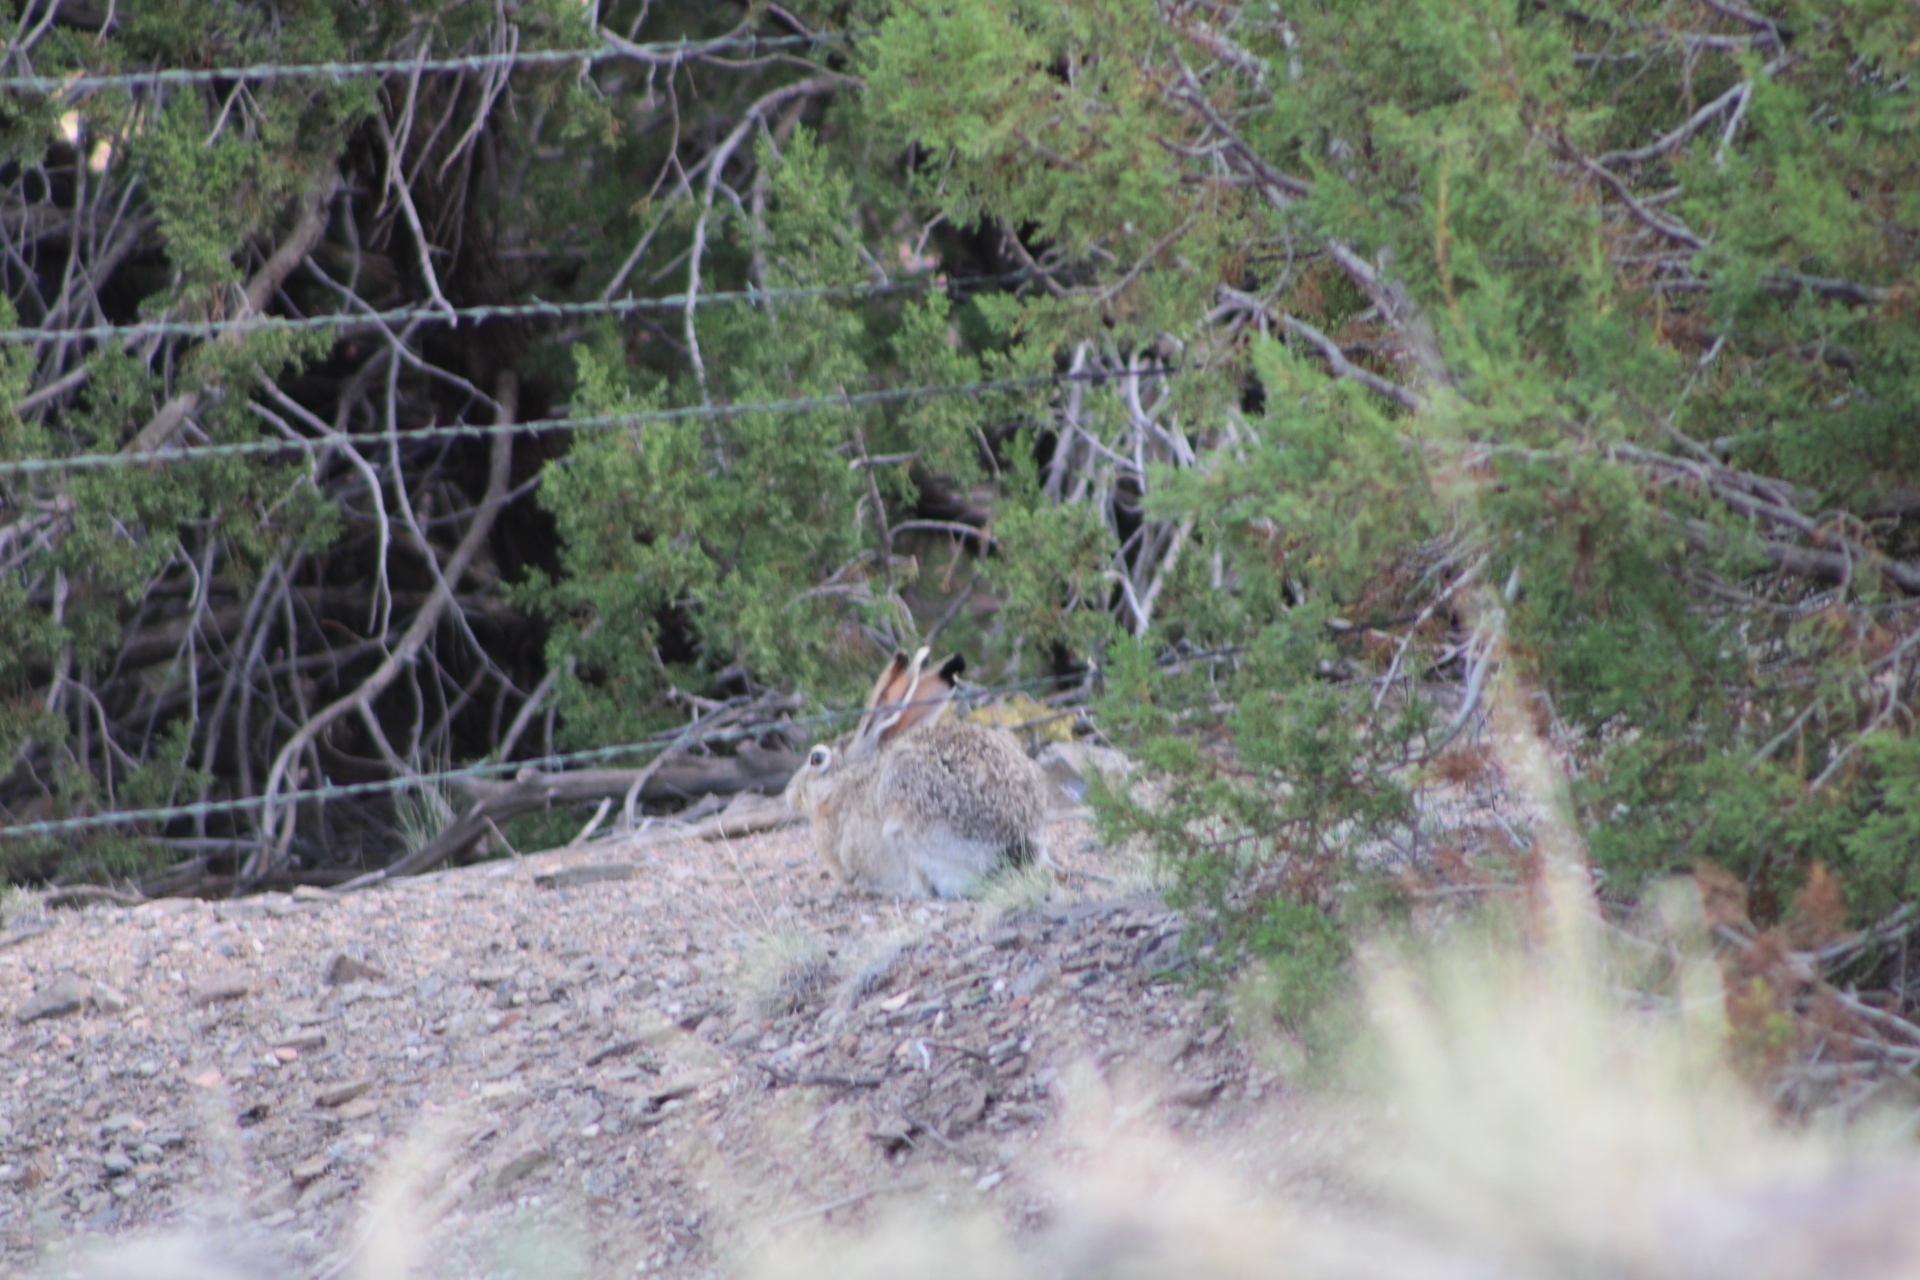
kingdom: Animalia
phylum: Chordata
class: Mammalia
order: Lagomorpha
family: Leporidae
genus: Lepus
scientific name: Lepus californicus
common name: Black-tailed jackrabbit
